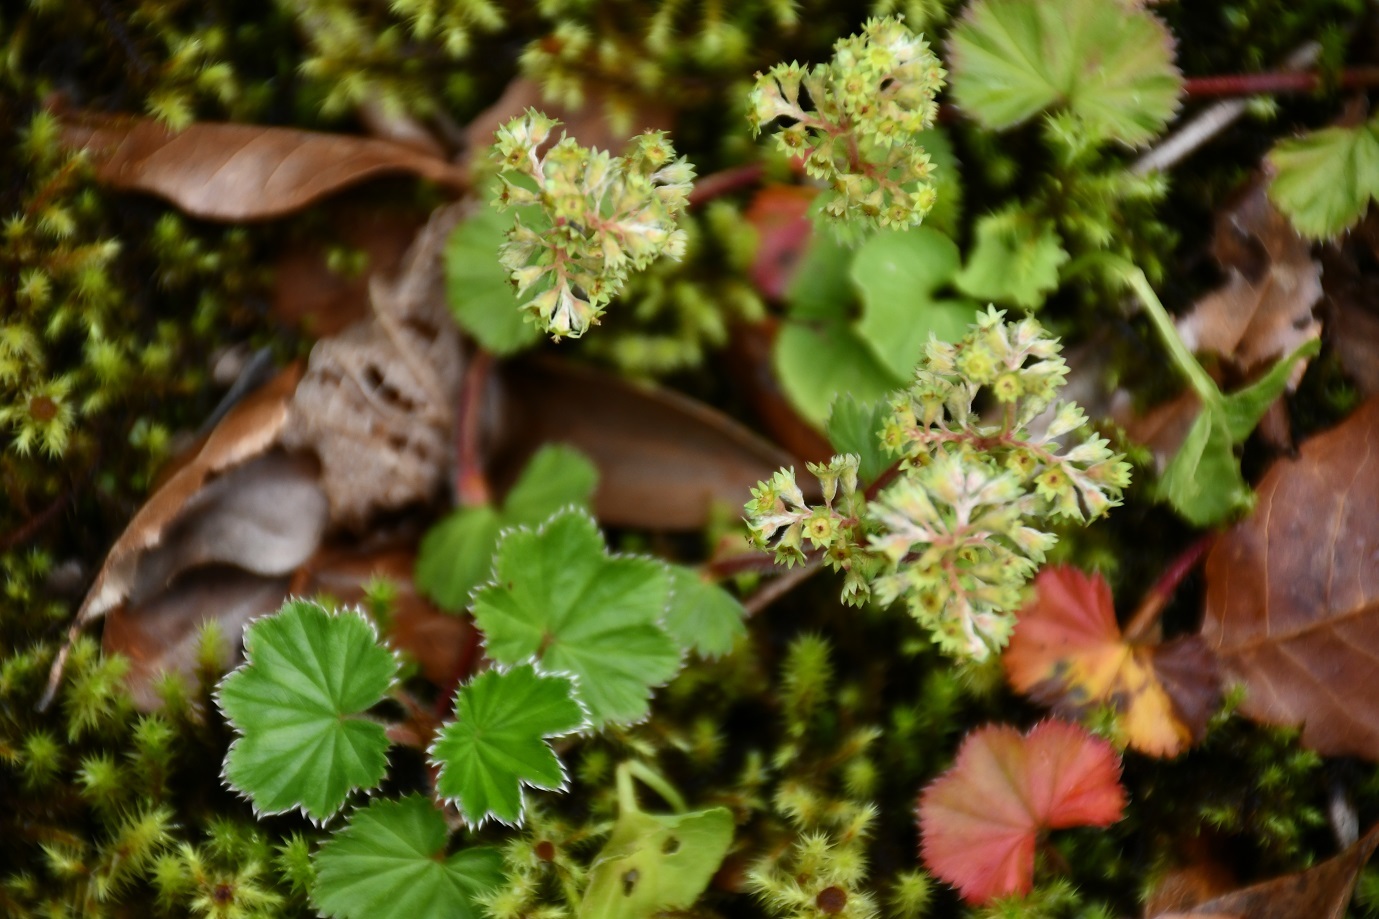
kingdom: Plantae
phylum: Tracheophyta
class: Magnoliopsida
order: Rosales
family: Rosaceae
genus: Lachemilla
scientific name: Lachemilla pectinata
